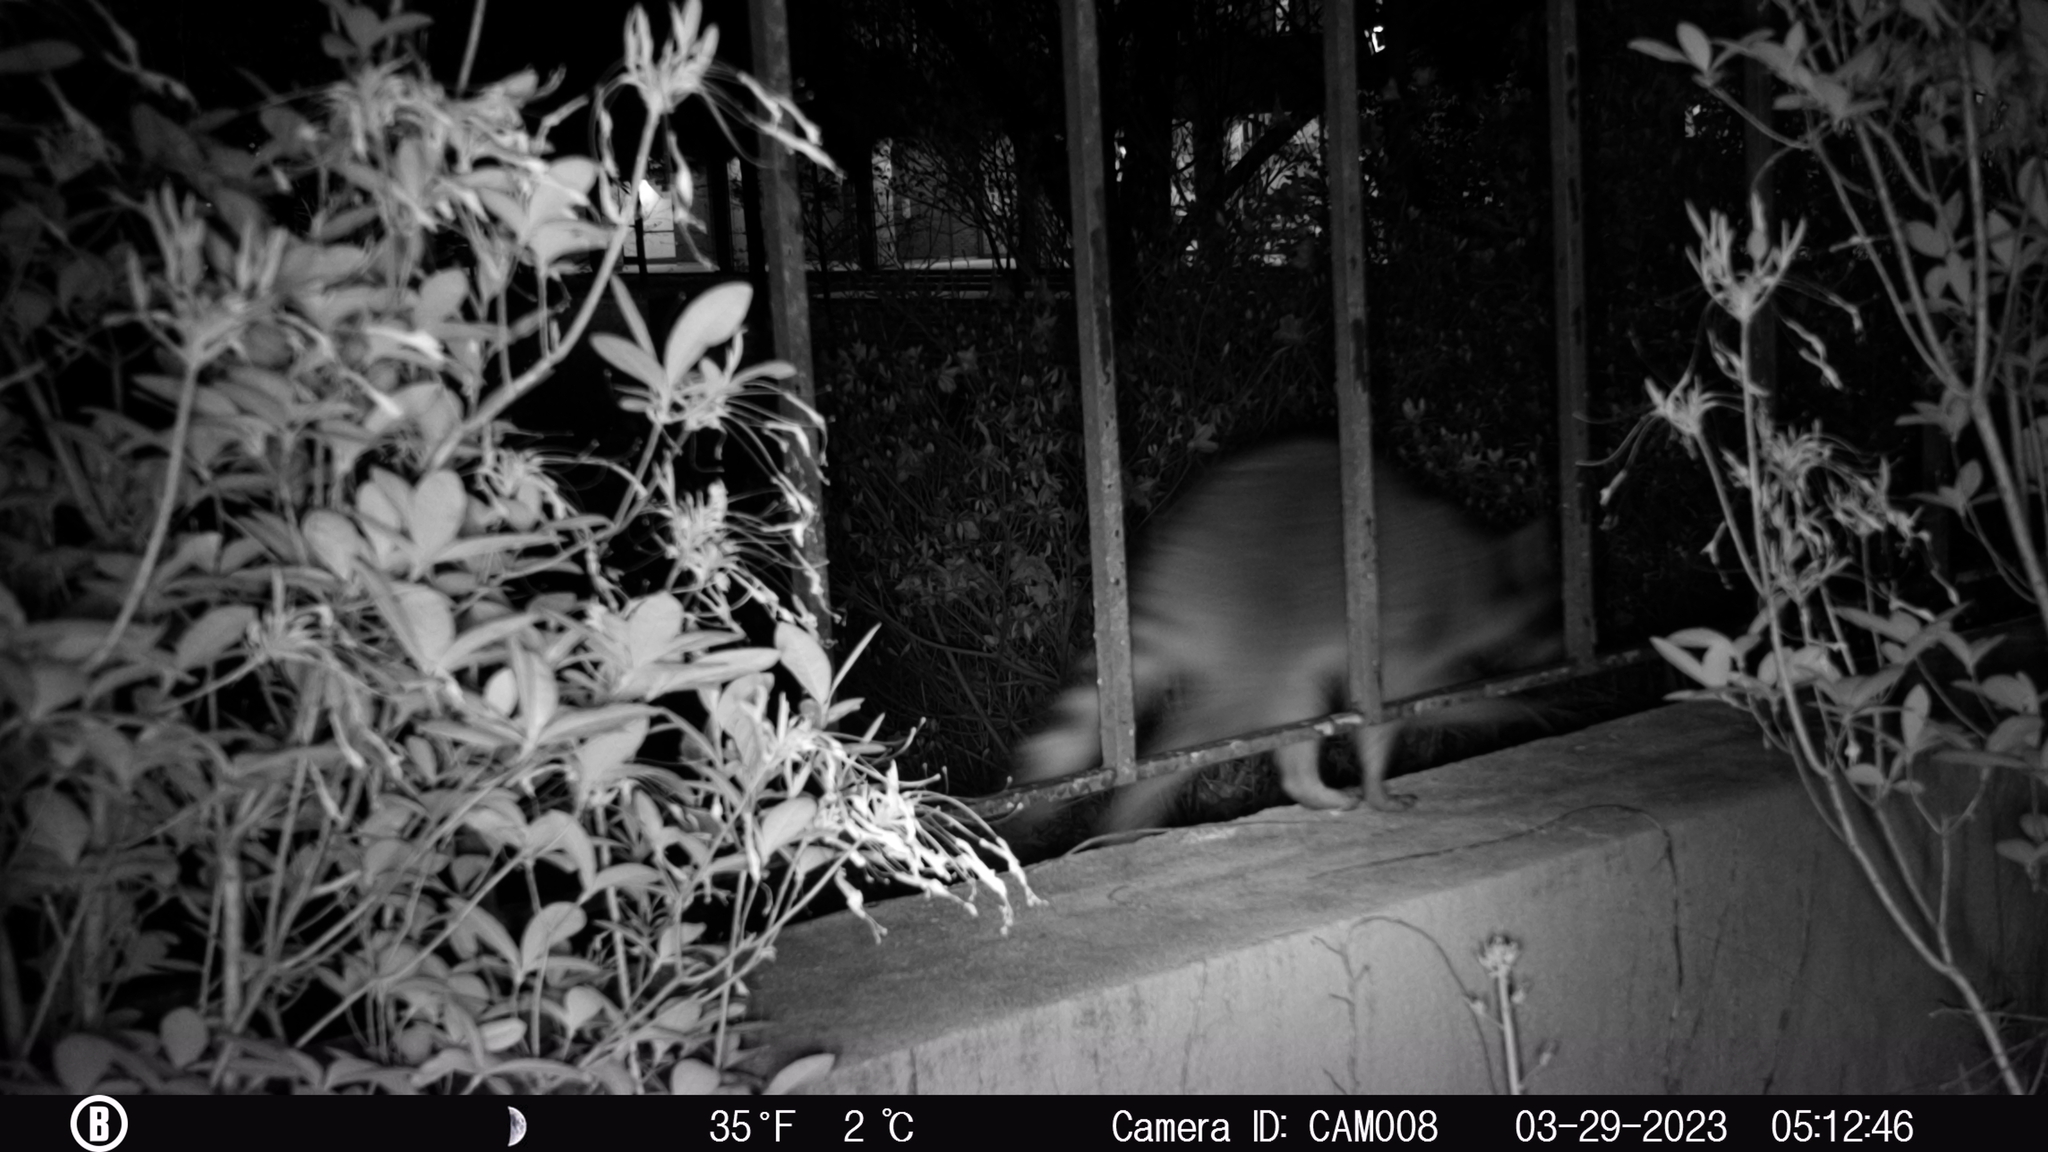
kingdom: Animalia
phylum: Chordata
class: Mammalia
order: Carnivora
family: Procyonidae
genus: Procyon
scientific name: Procyon lotor
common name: Raccoon
